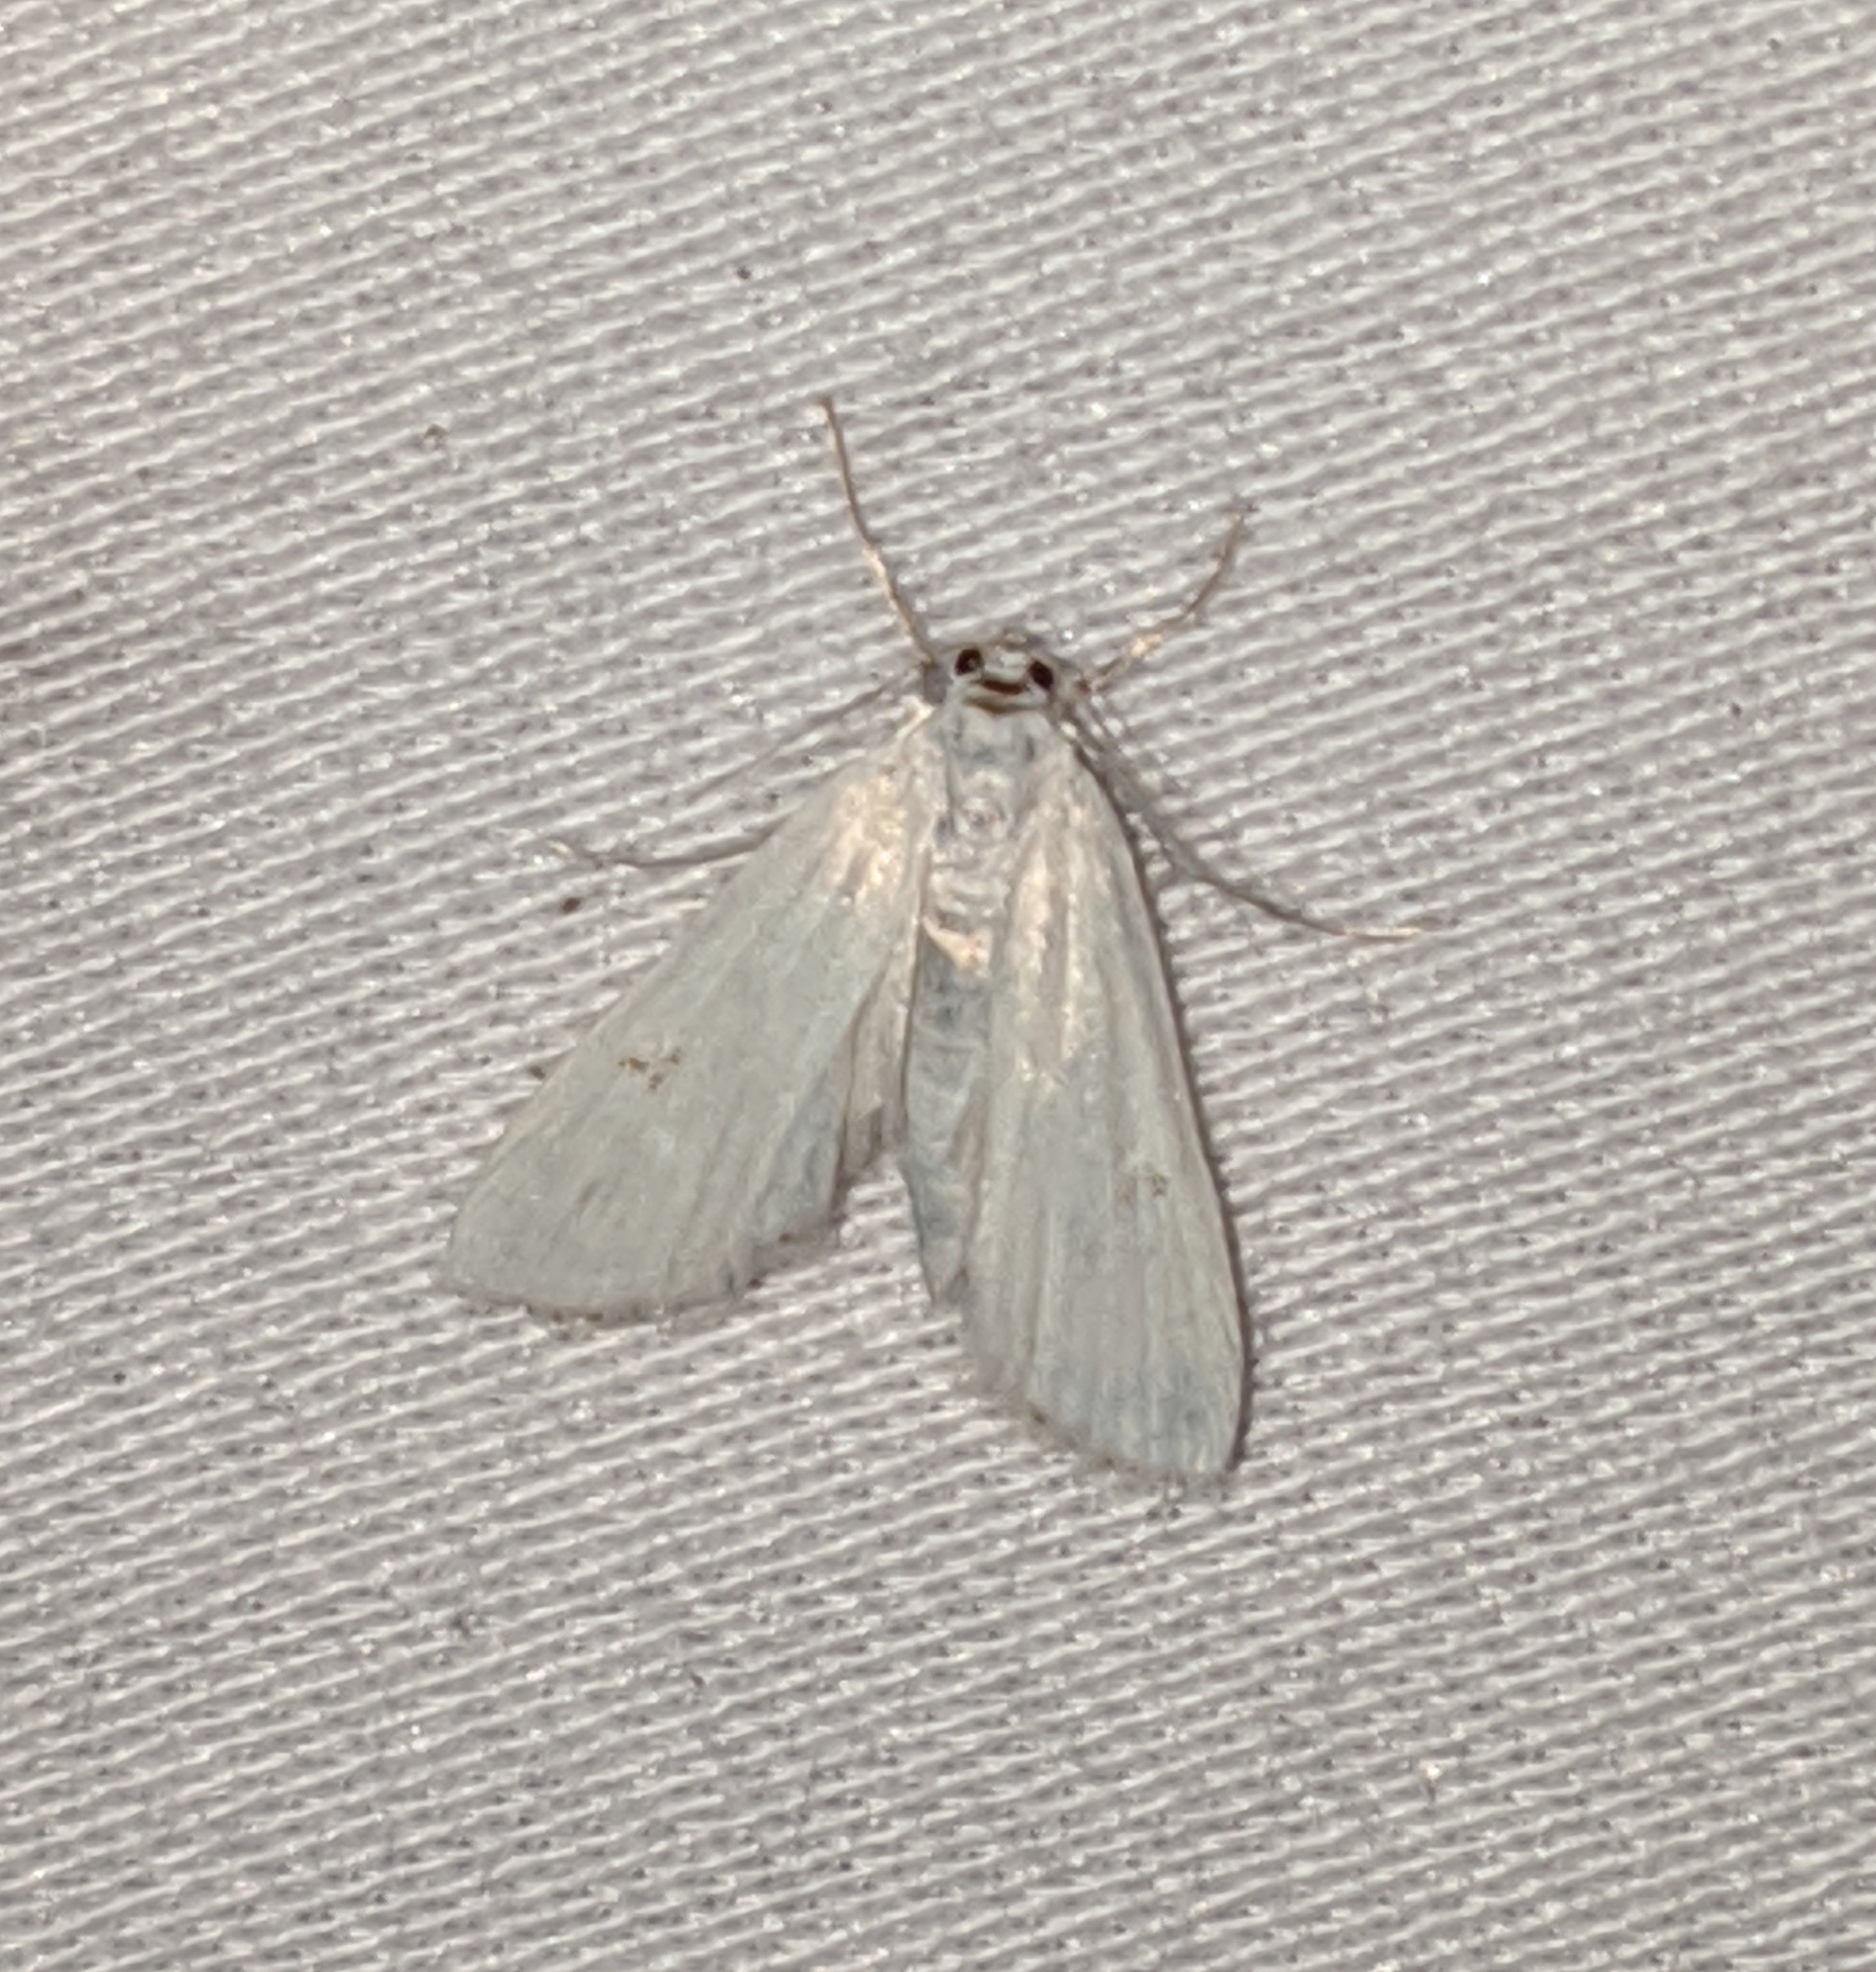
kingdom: Animalia
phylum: Arthropoda
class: Insecta
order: Lepidoptera
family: Crambidae
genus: Parapoynx
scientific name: Parapoynx allionealis
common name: Bladderwort casemaker
